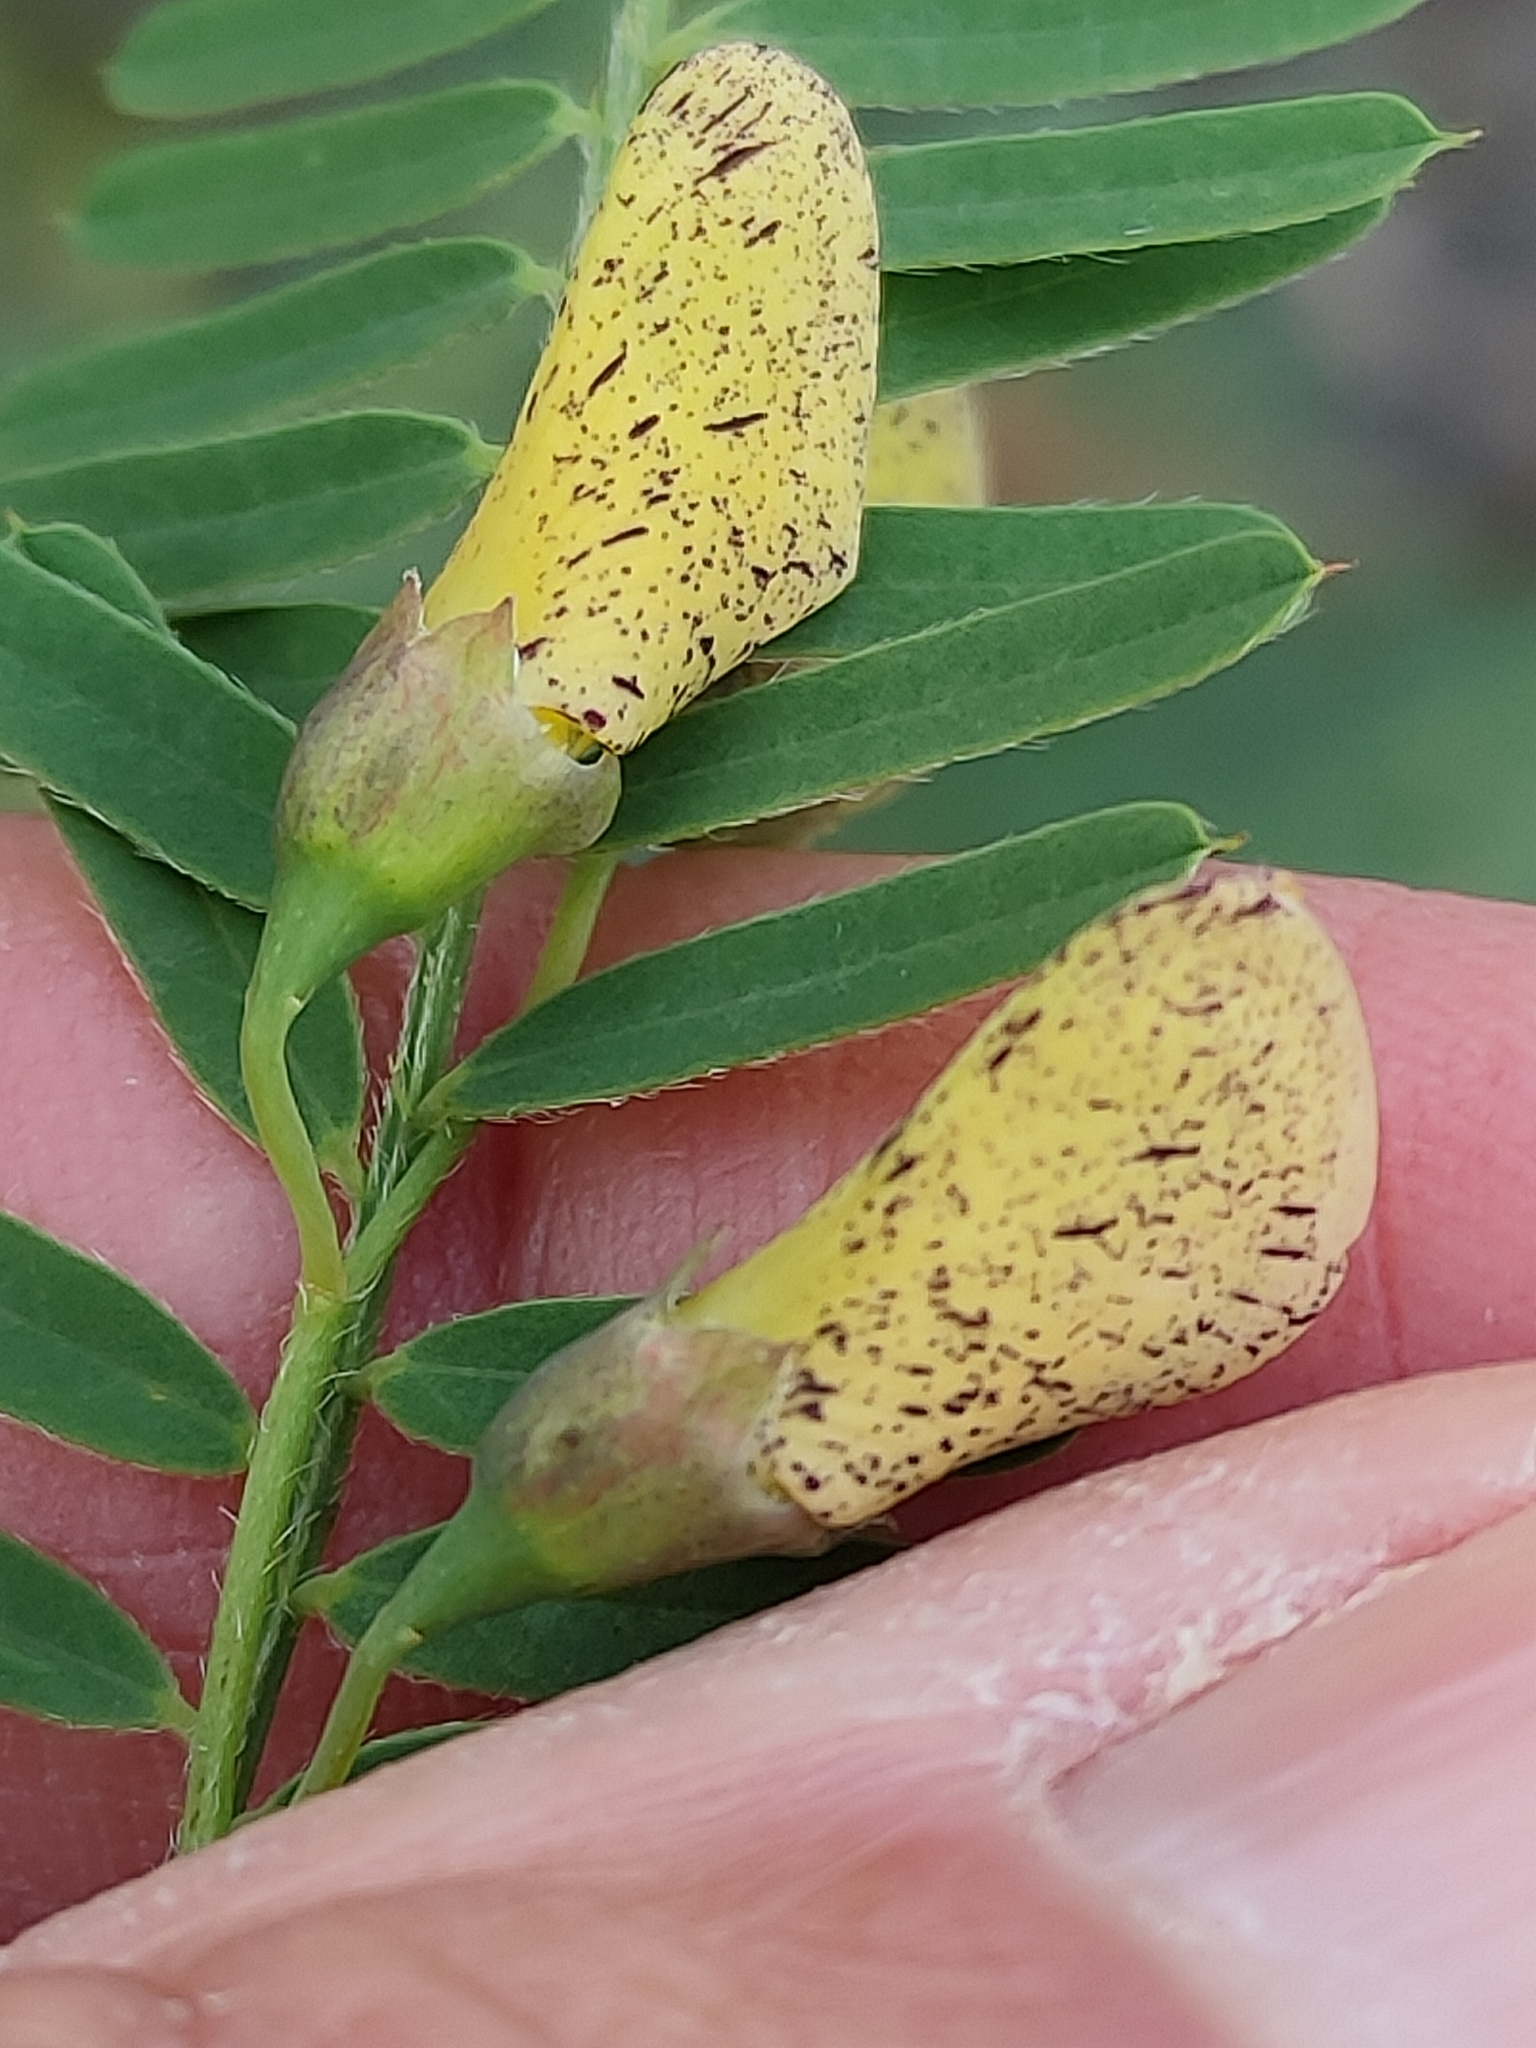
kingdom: Plantae
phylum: Tracheophyta
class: Magnoliopsida
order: Fabales
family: Fabaceae
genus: Sesbania
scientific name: Sesbania cannabina
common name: Canicha
